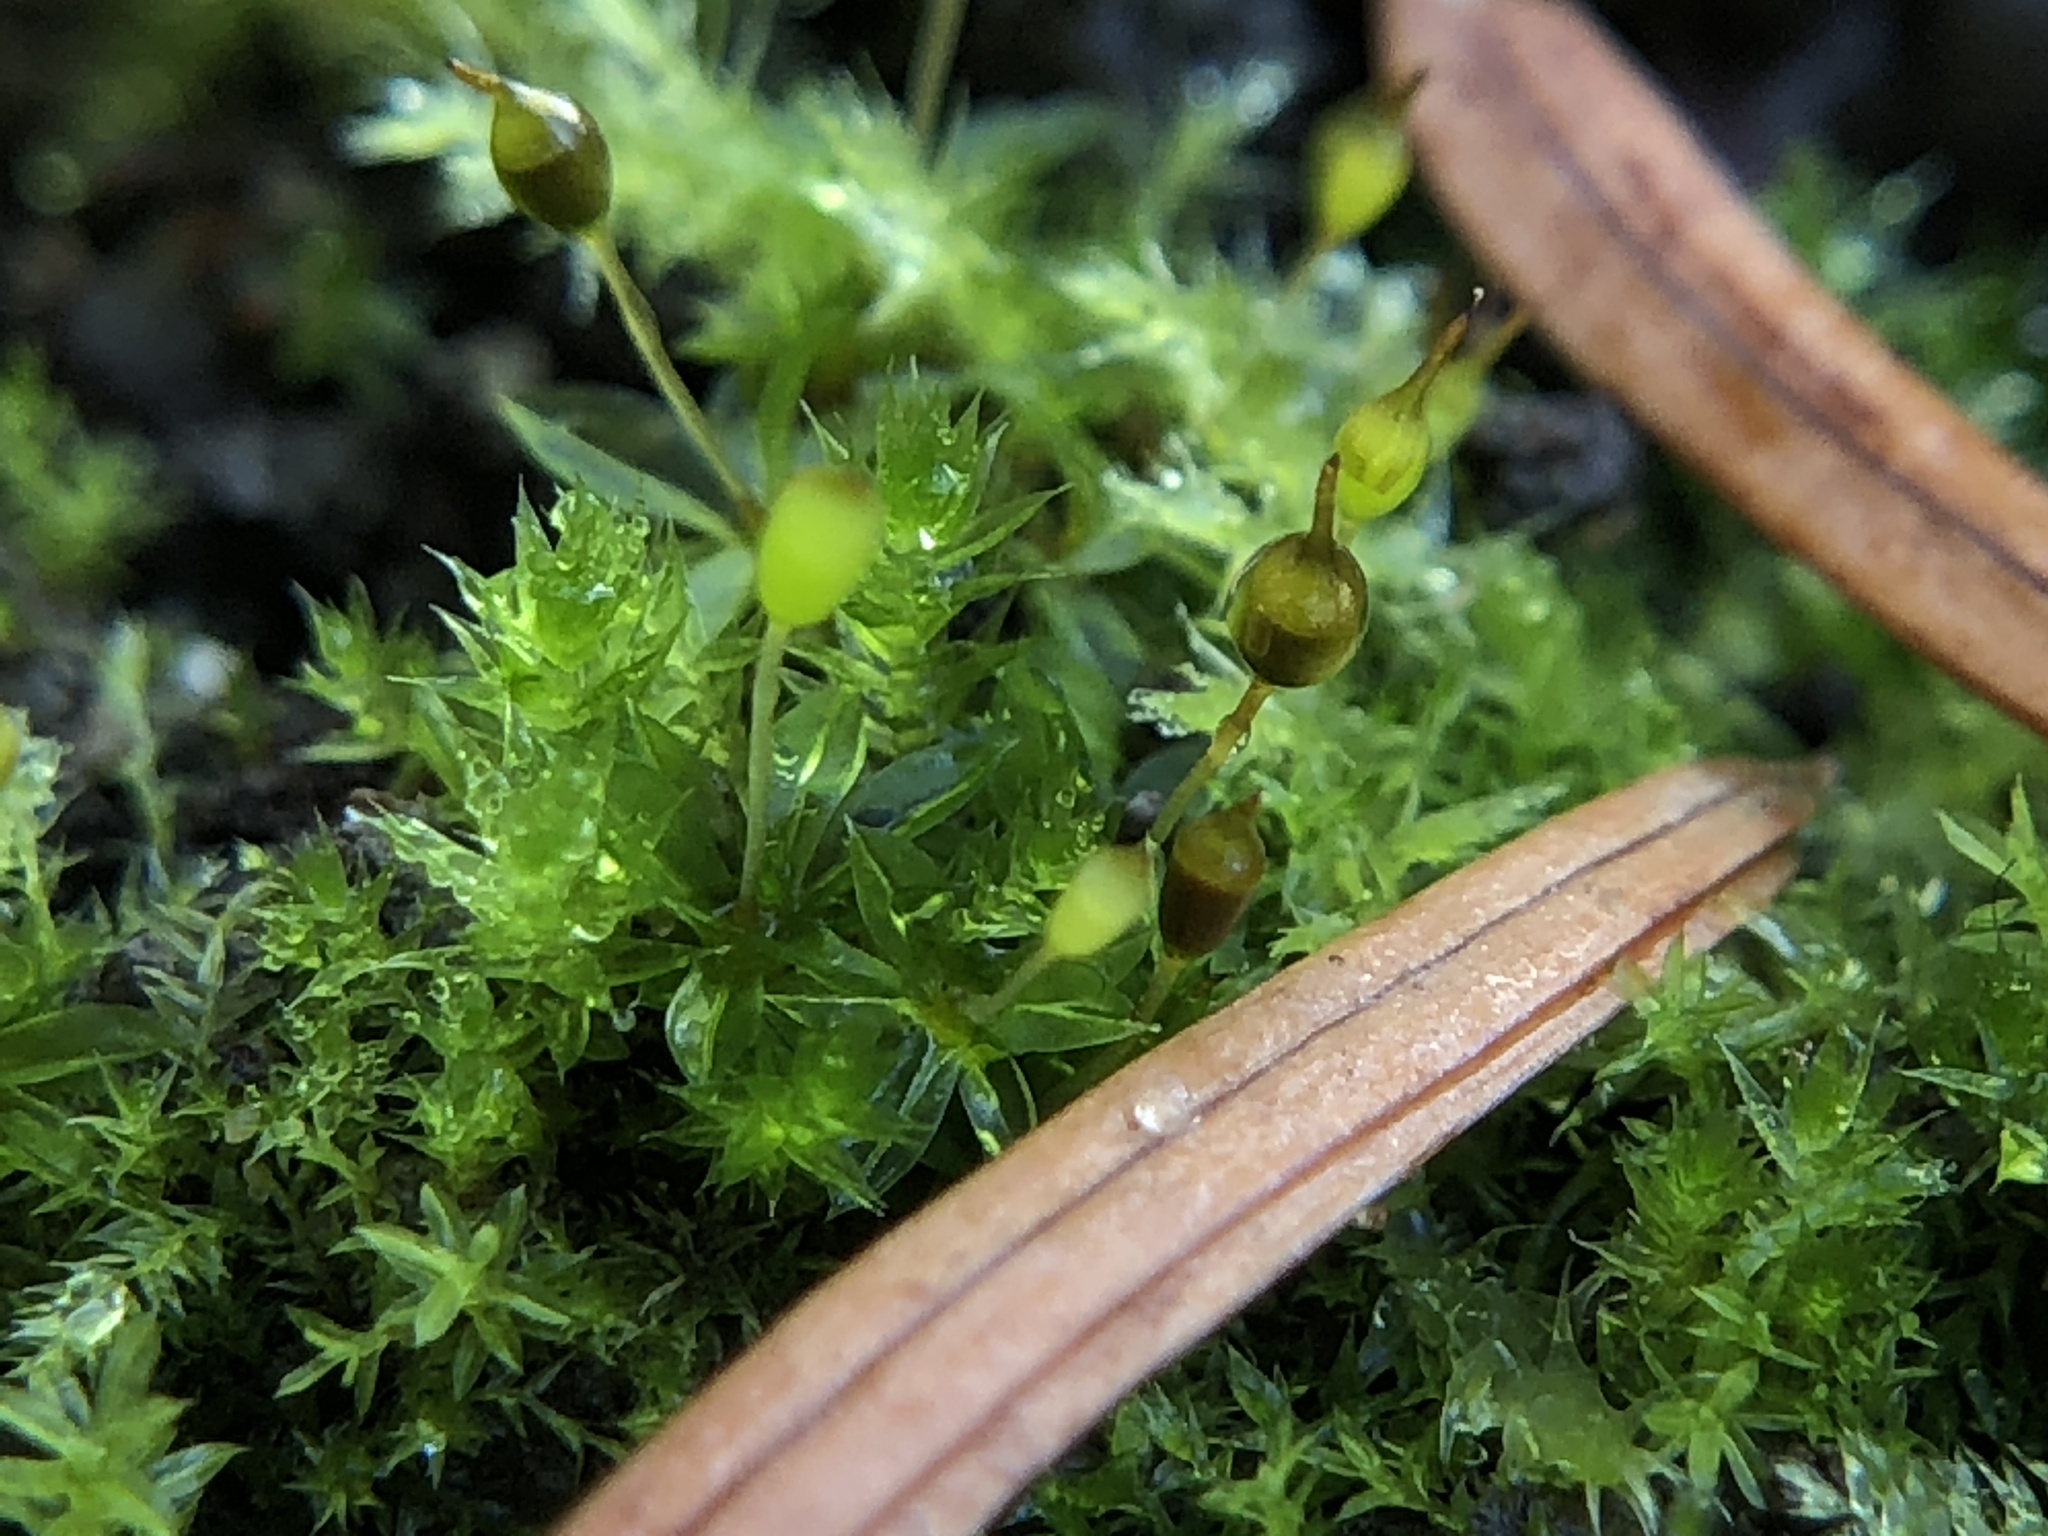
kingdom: Plantae
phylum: Bryophyta
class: Bryopsida
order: Pottiales
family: Pottiaceae
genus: Tortula
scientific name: Tortula truncata
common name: Truncated screw moss
